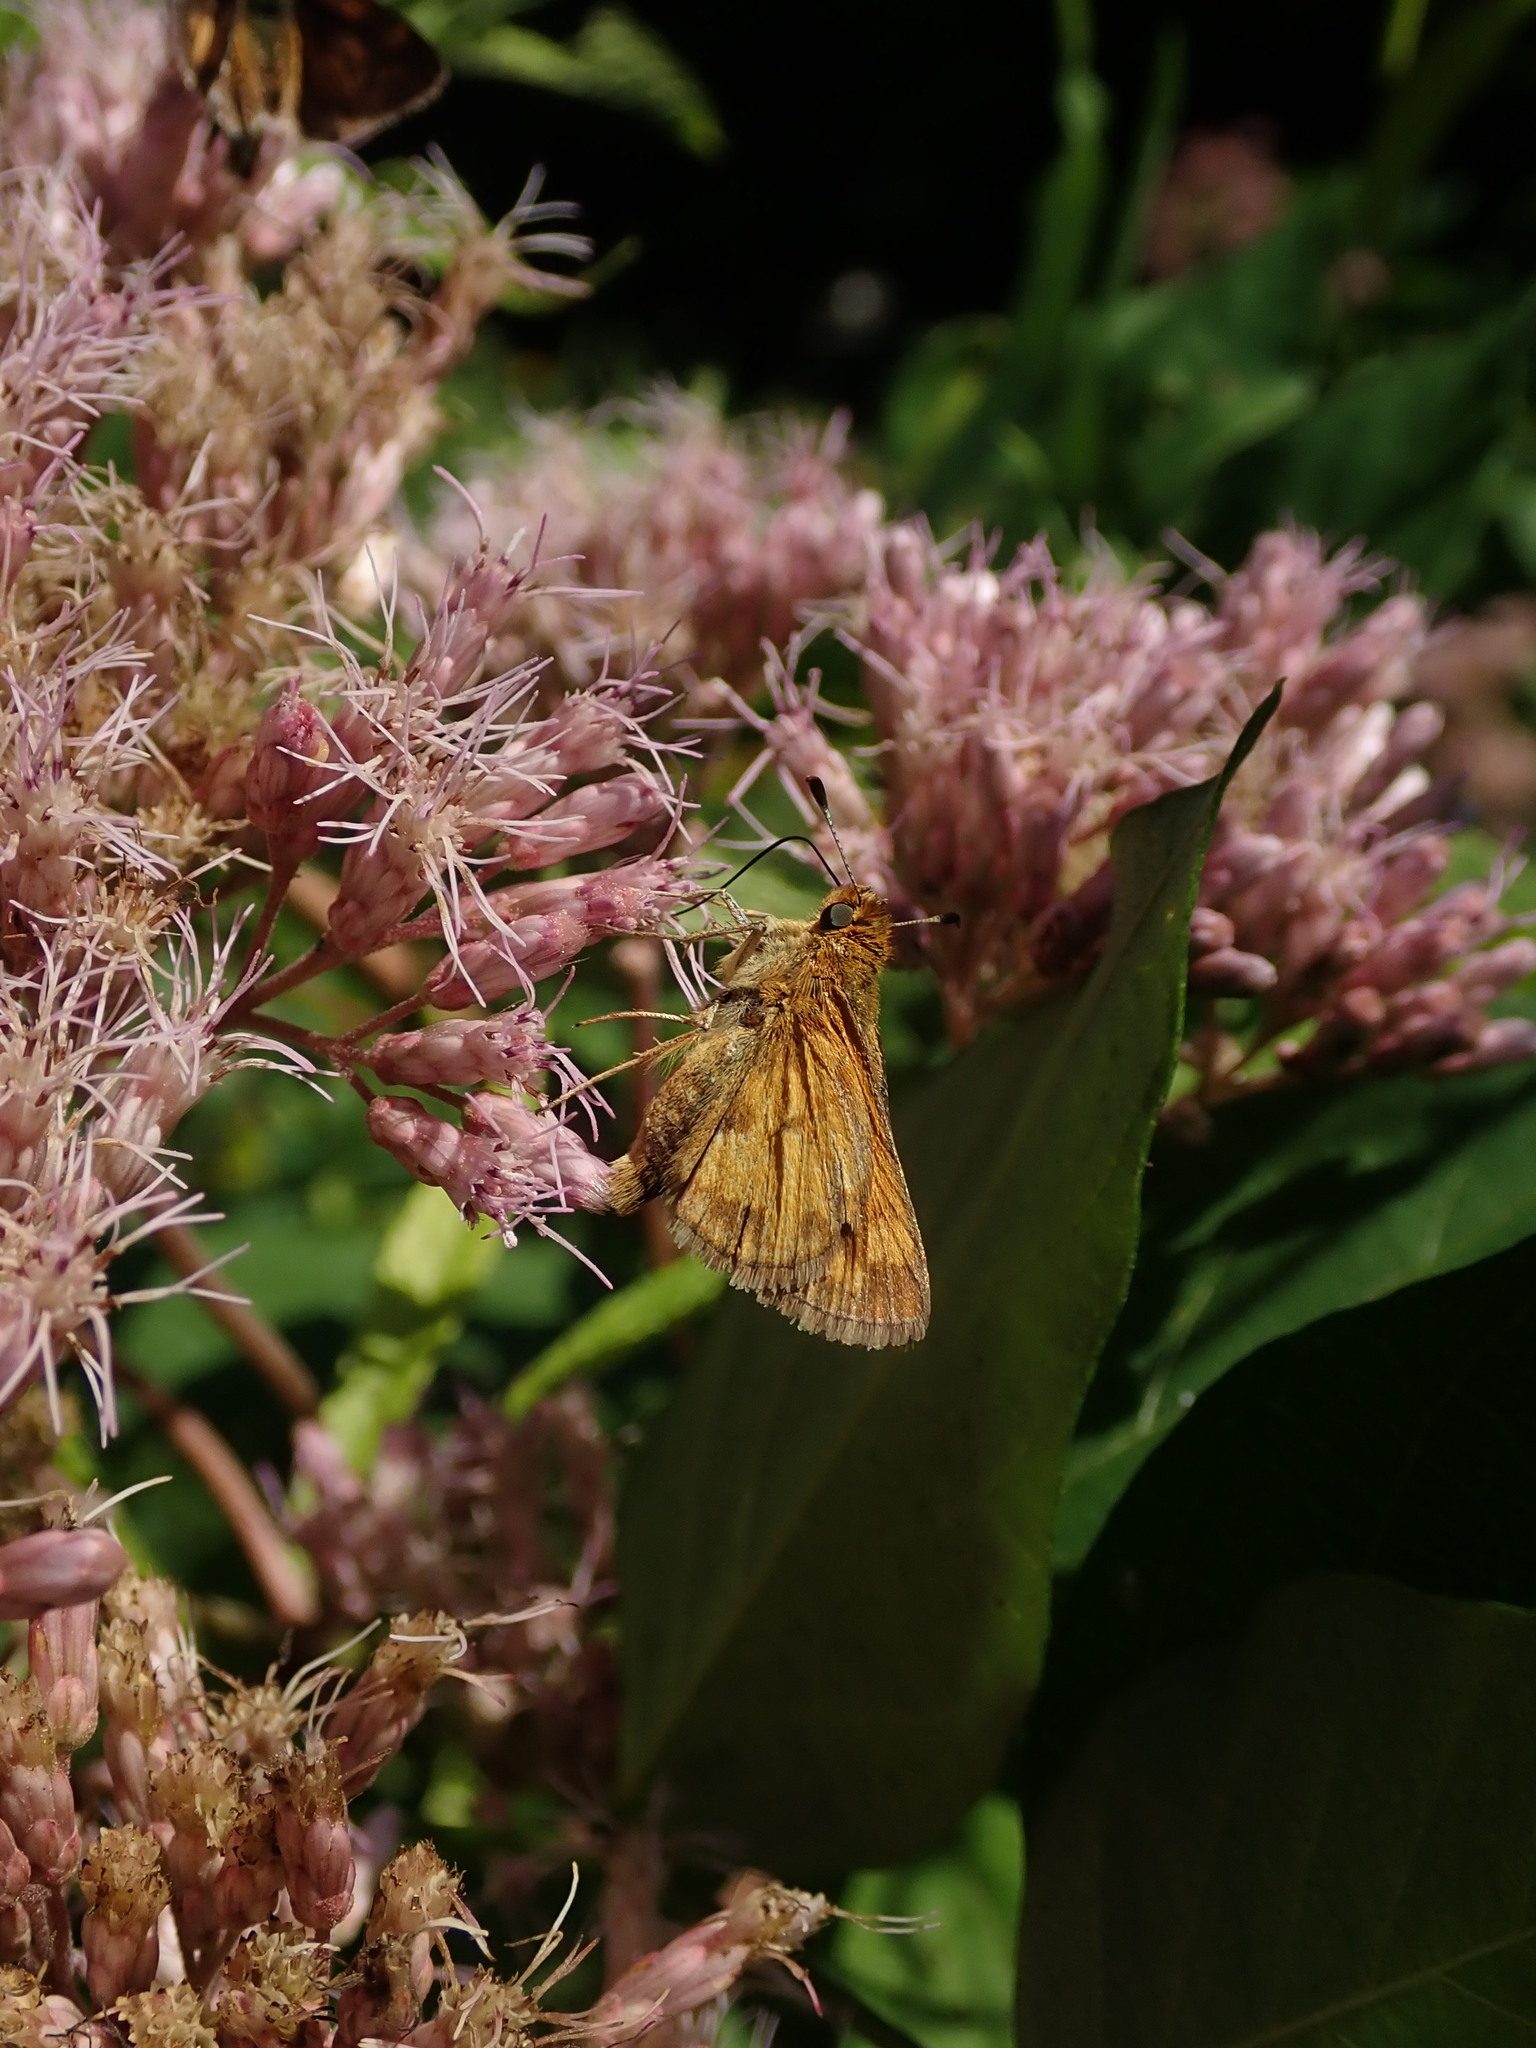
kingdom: Animalia
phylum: Arthropoda
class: Insecta
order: Lepidoptera
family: Hesperiidae
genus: Polites
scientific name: Polites coras
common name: Peck's skipper
